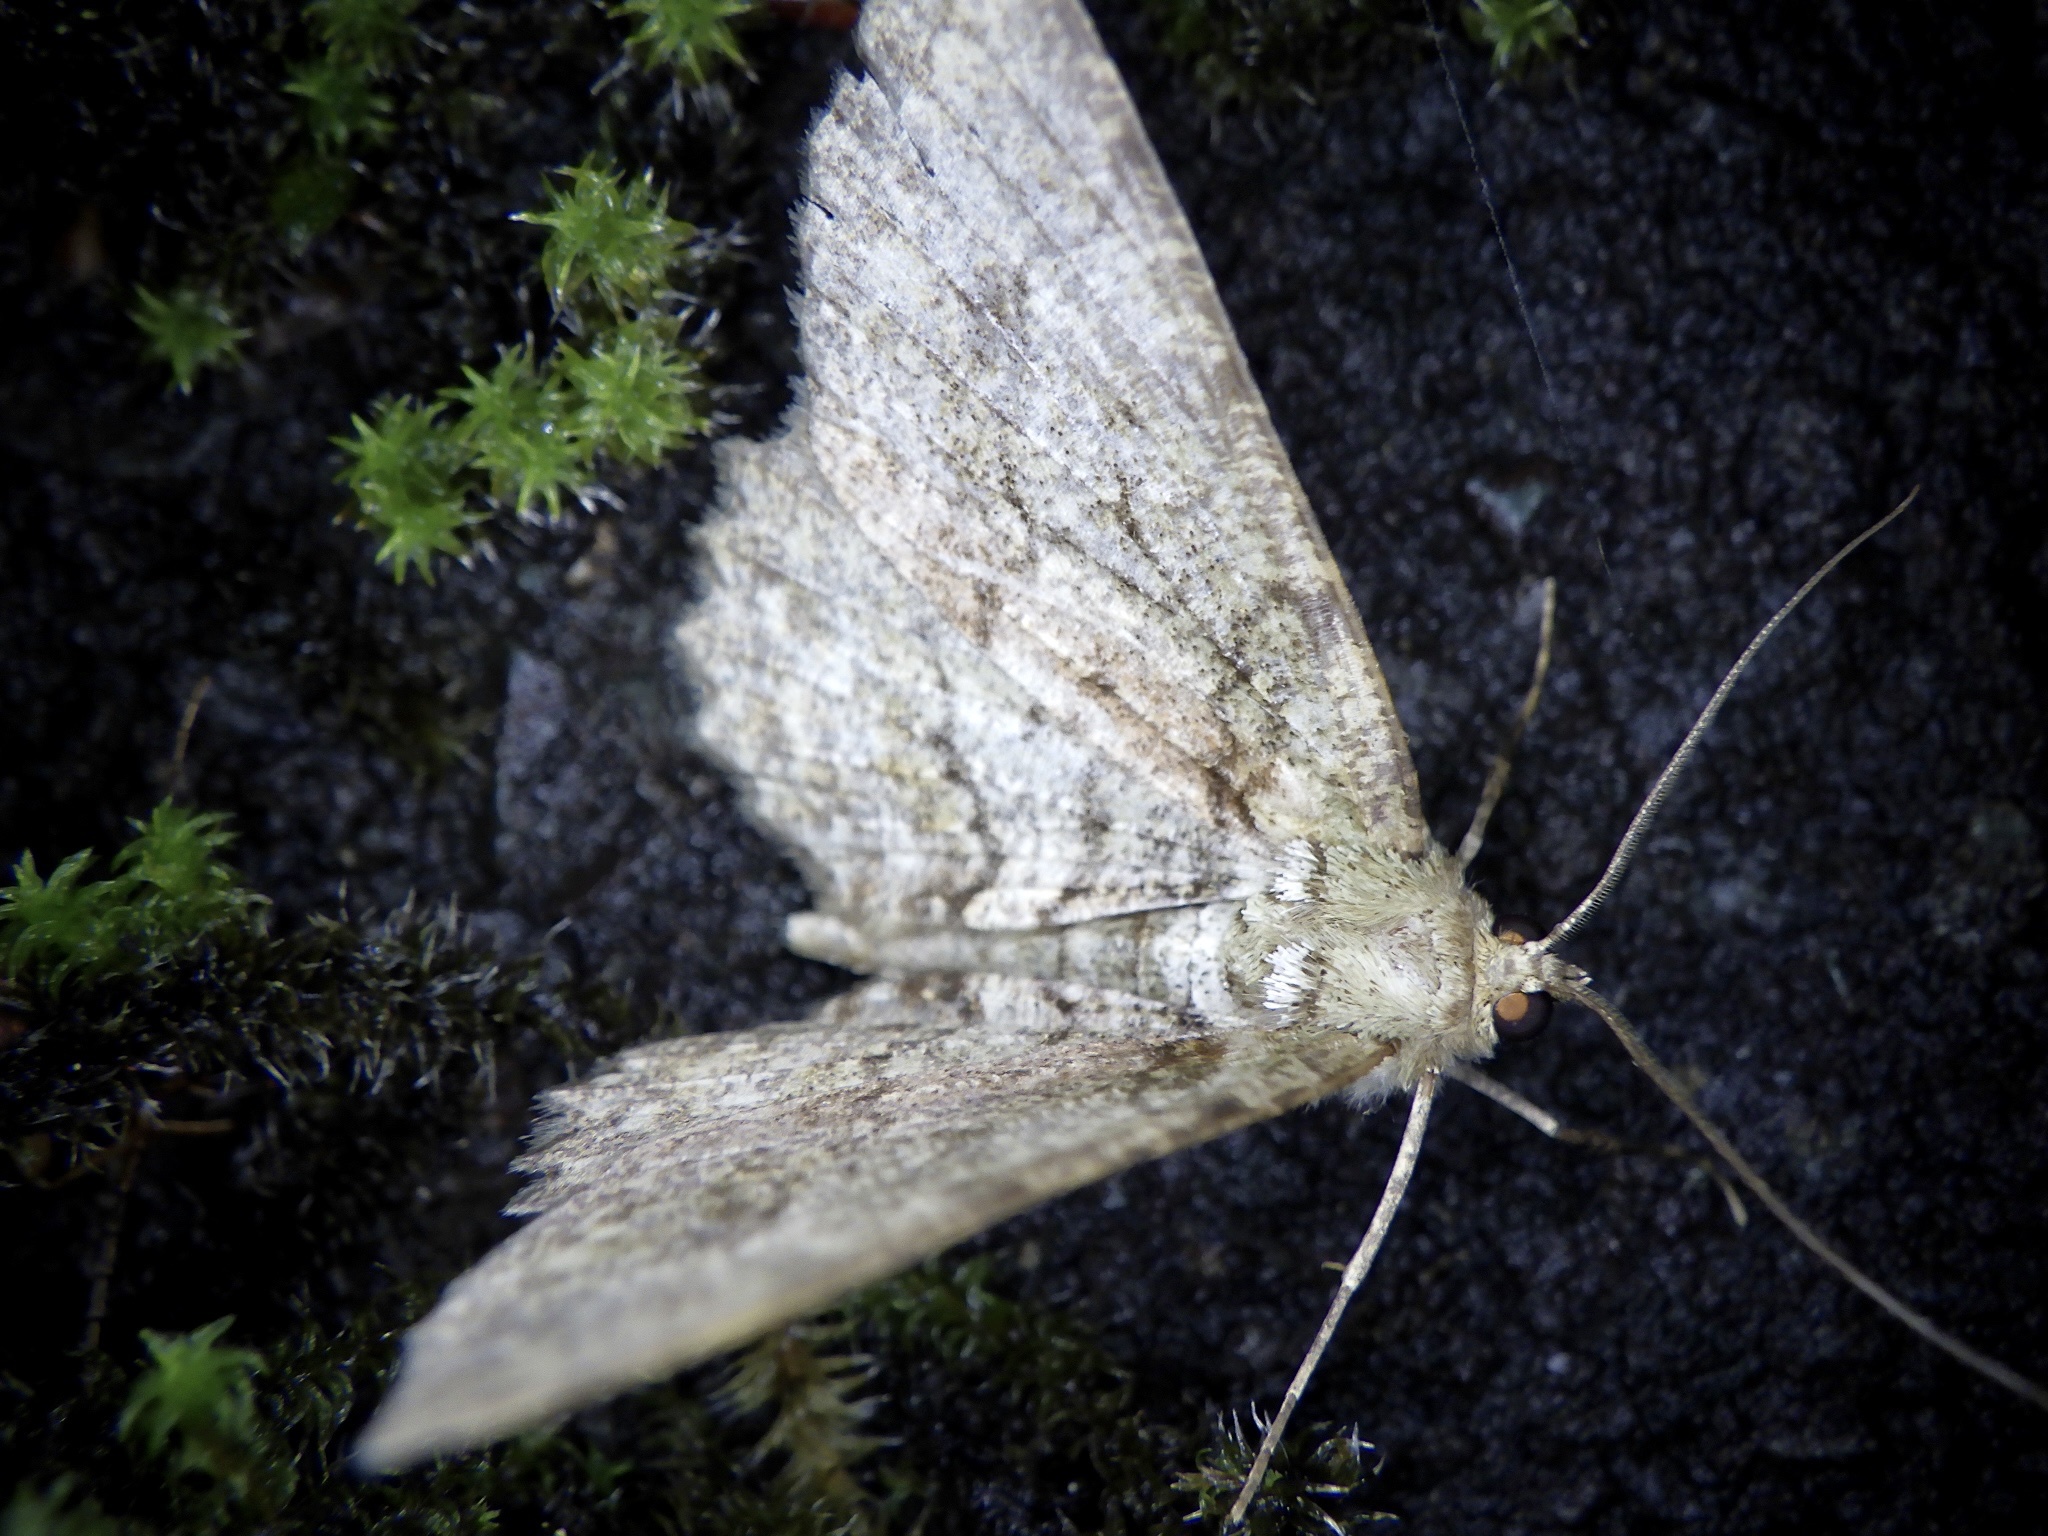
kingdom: Animalia
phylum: Arthropoda
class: Insecta
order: Lepidoptera
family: Geometridae
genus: Paradarisa
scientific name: Paradarisa chloauges
